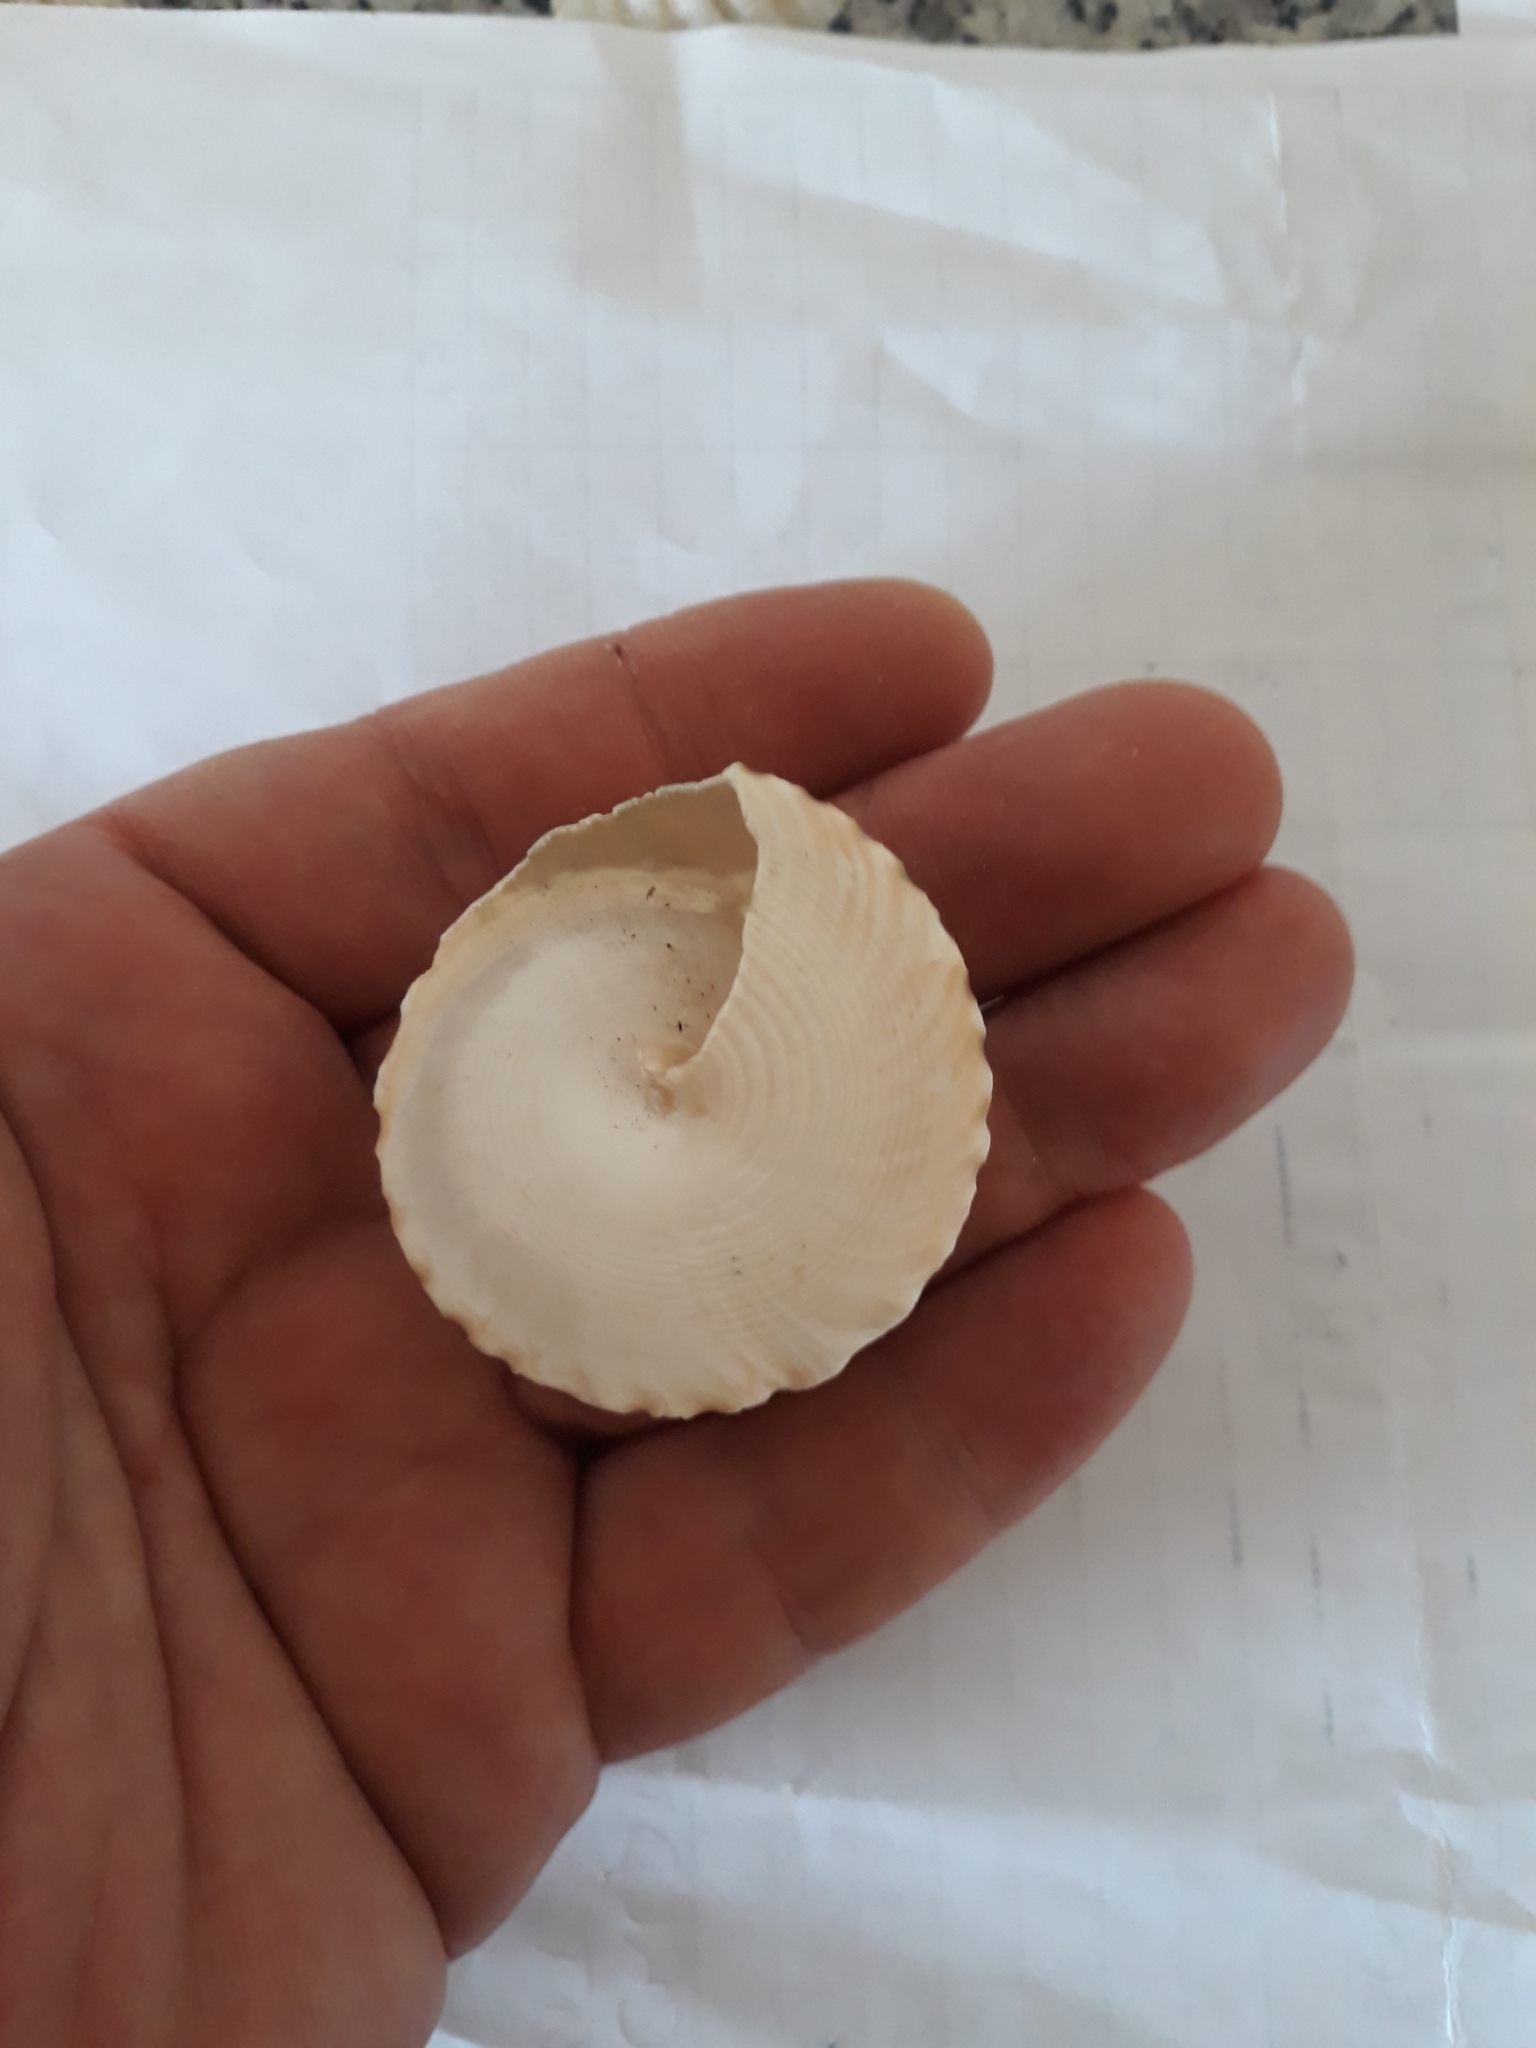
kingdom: Animalia
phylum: Mollusca
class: Gastropoda
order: Trochida
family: Tegulidae
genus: Tectus
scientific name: Tectus pyramis
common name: Pyramid top
